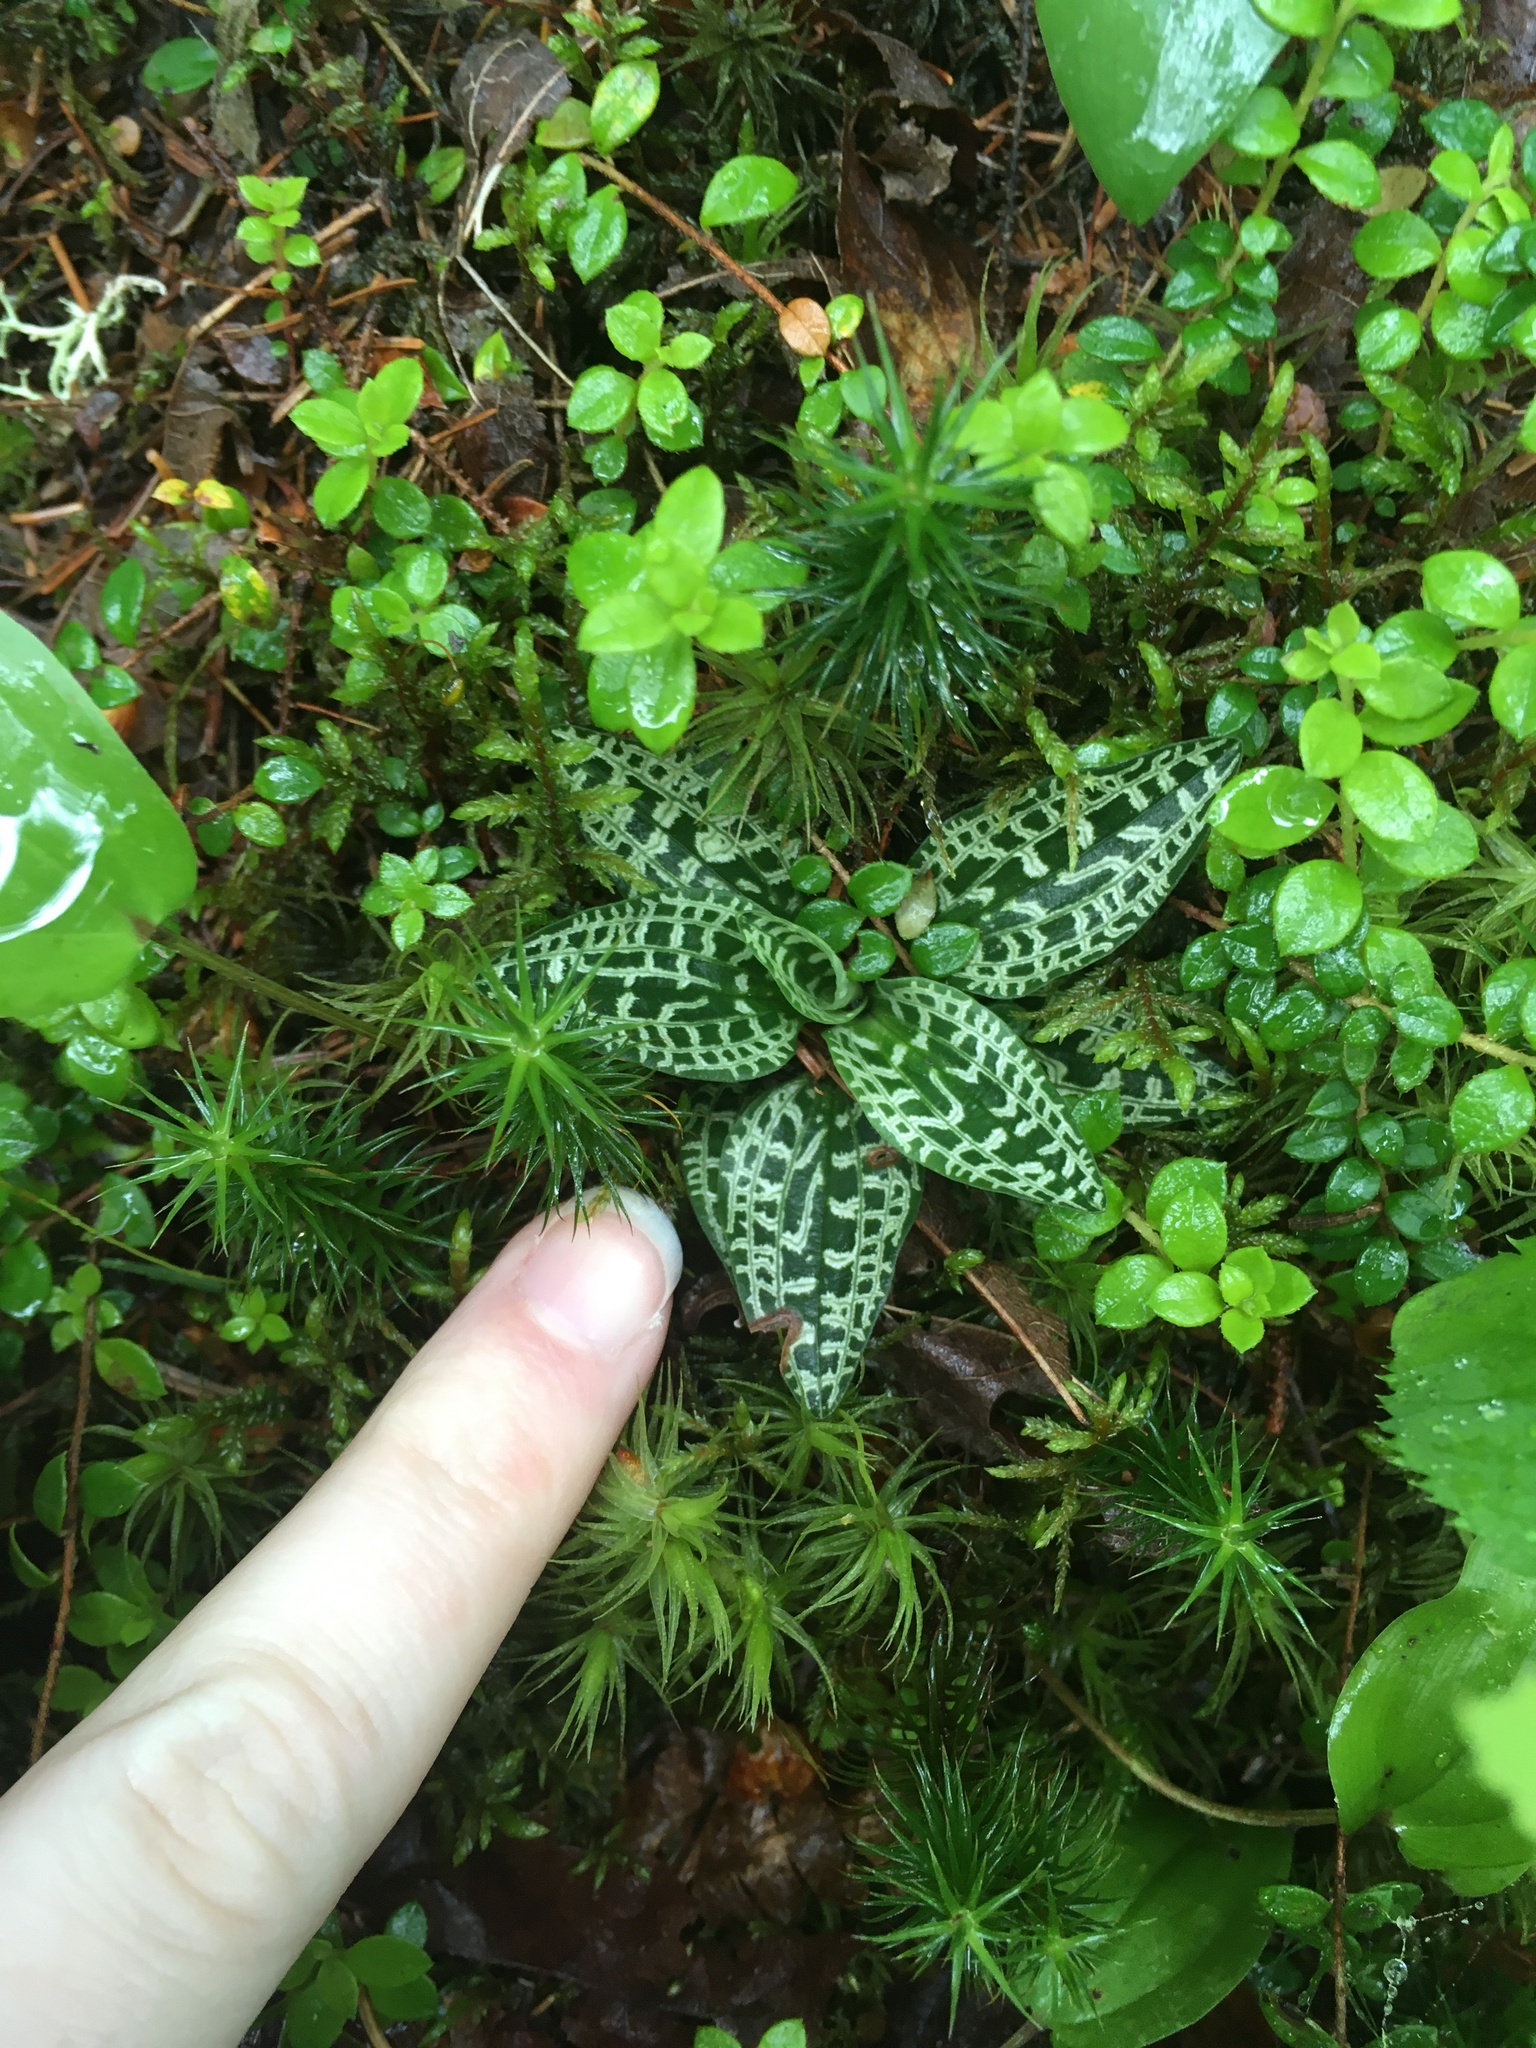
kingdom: Plantae
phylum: Tracheophyta
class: Liliopsida
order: Asparagales
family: Orchidaceae
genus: Goodyera
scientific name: Goodyera repens
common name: Creeping lady's-tresses
